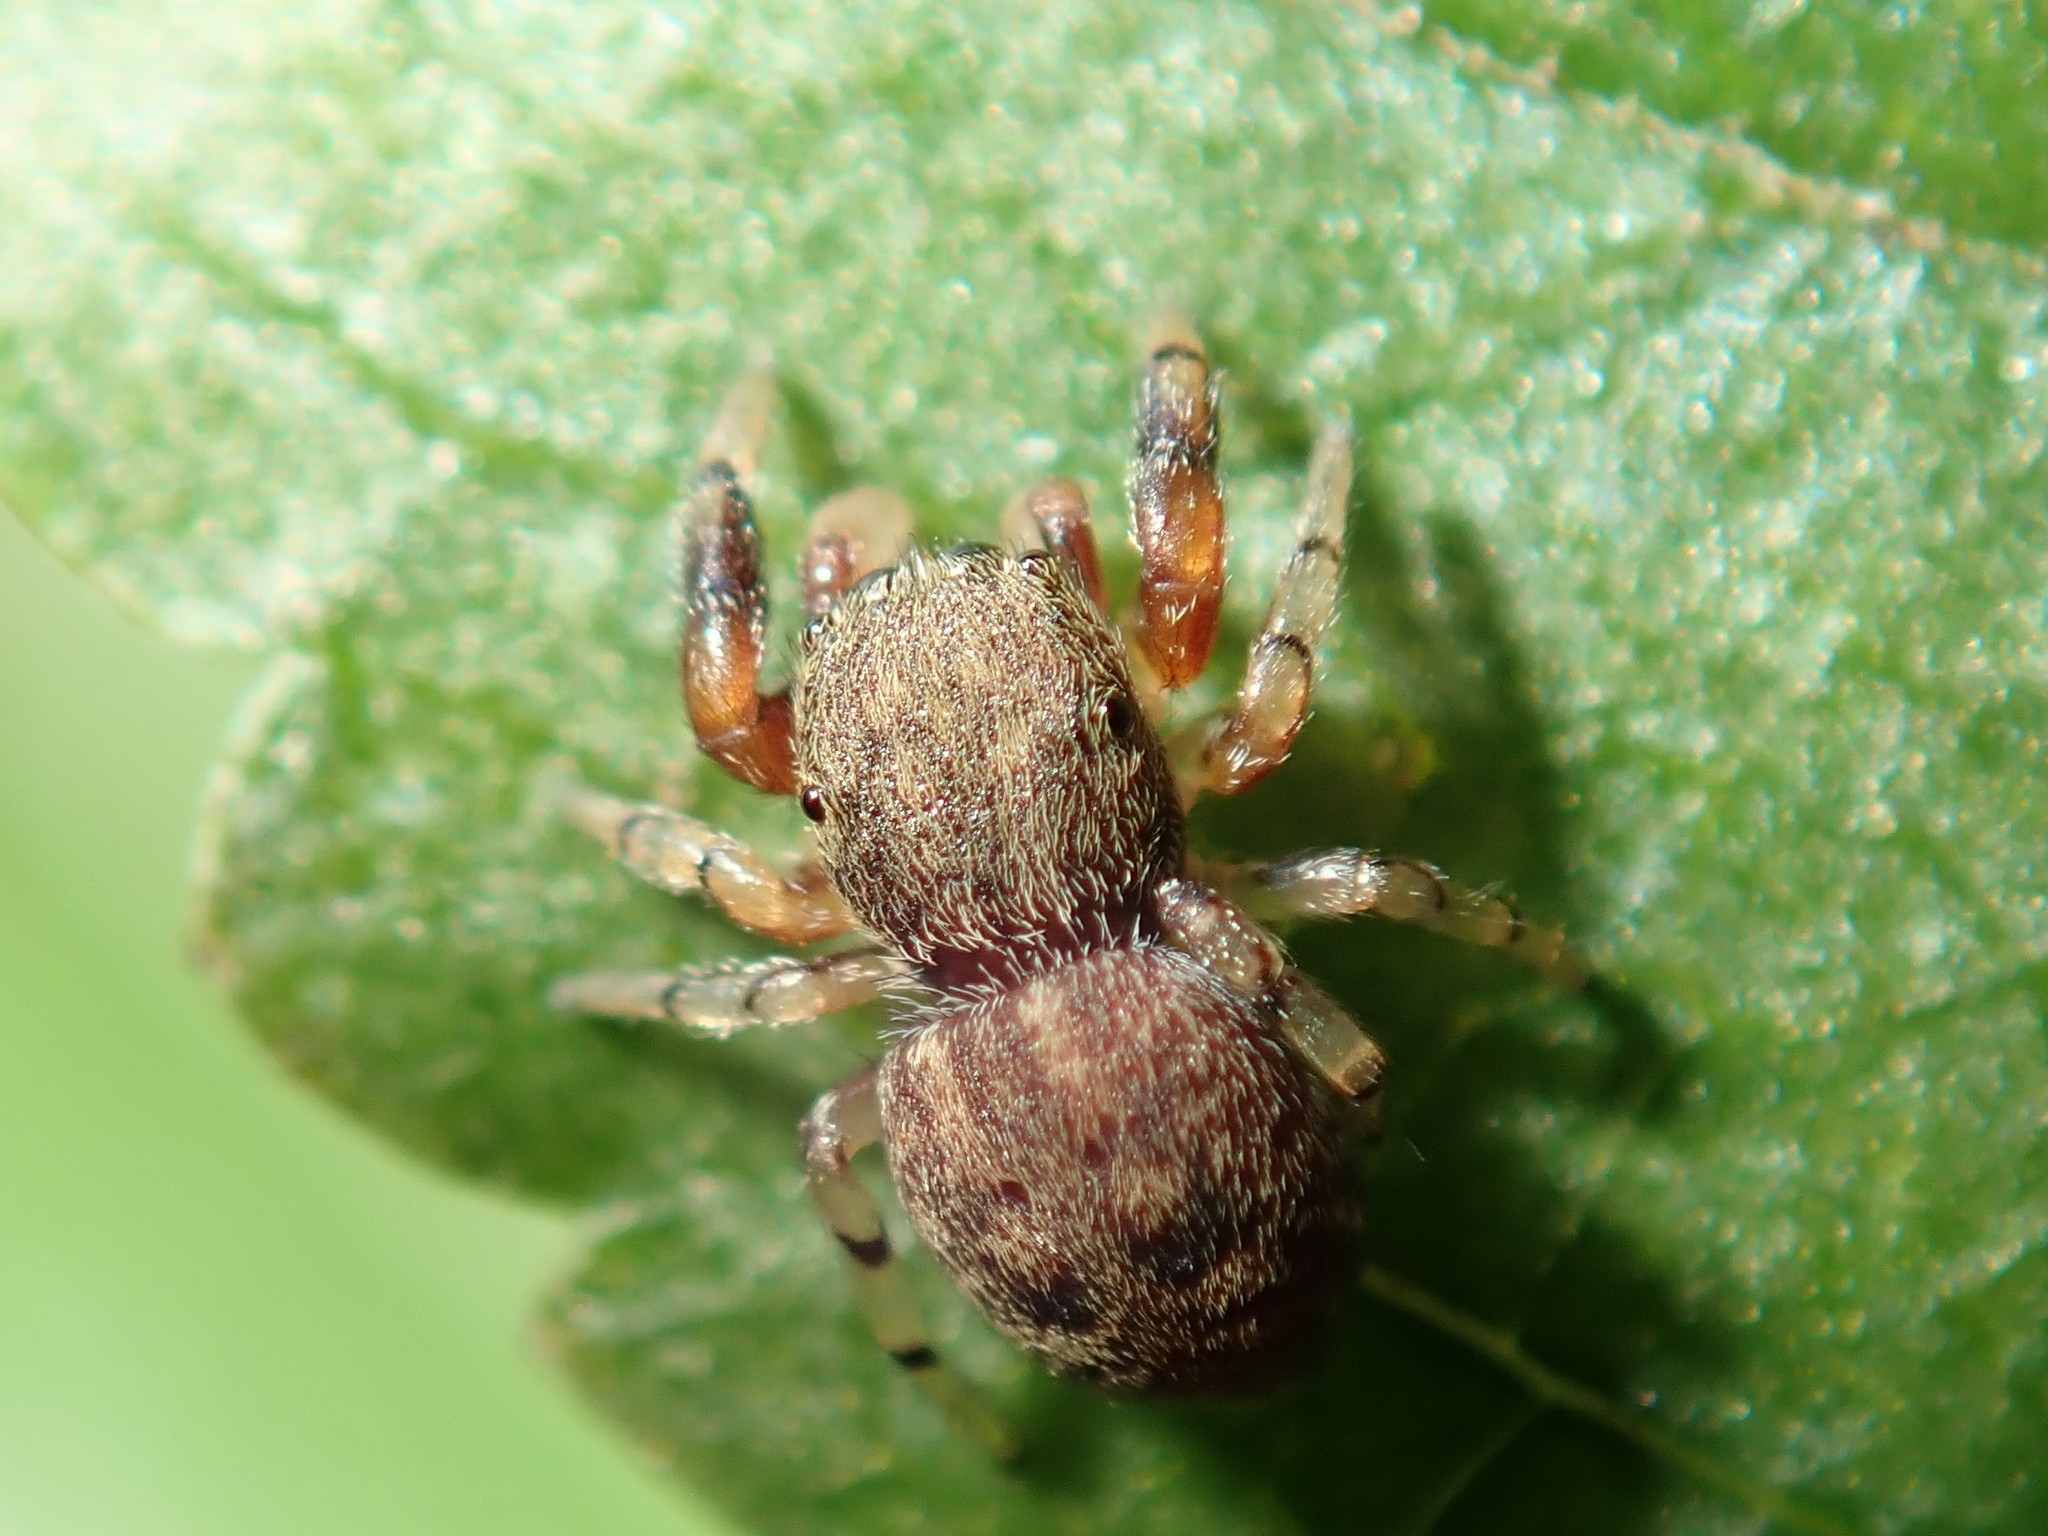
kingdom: Animalia
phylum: Arthropoda
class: Arachnida
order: Araneae
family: Salticidae
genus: Ballus
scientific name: Ballus chalybeius
